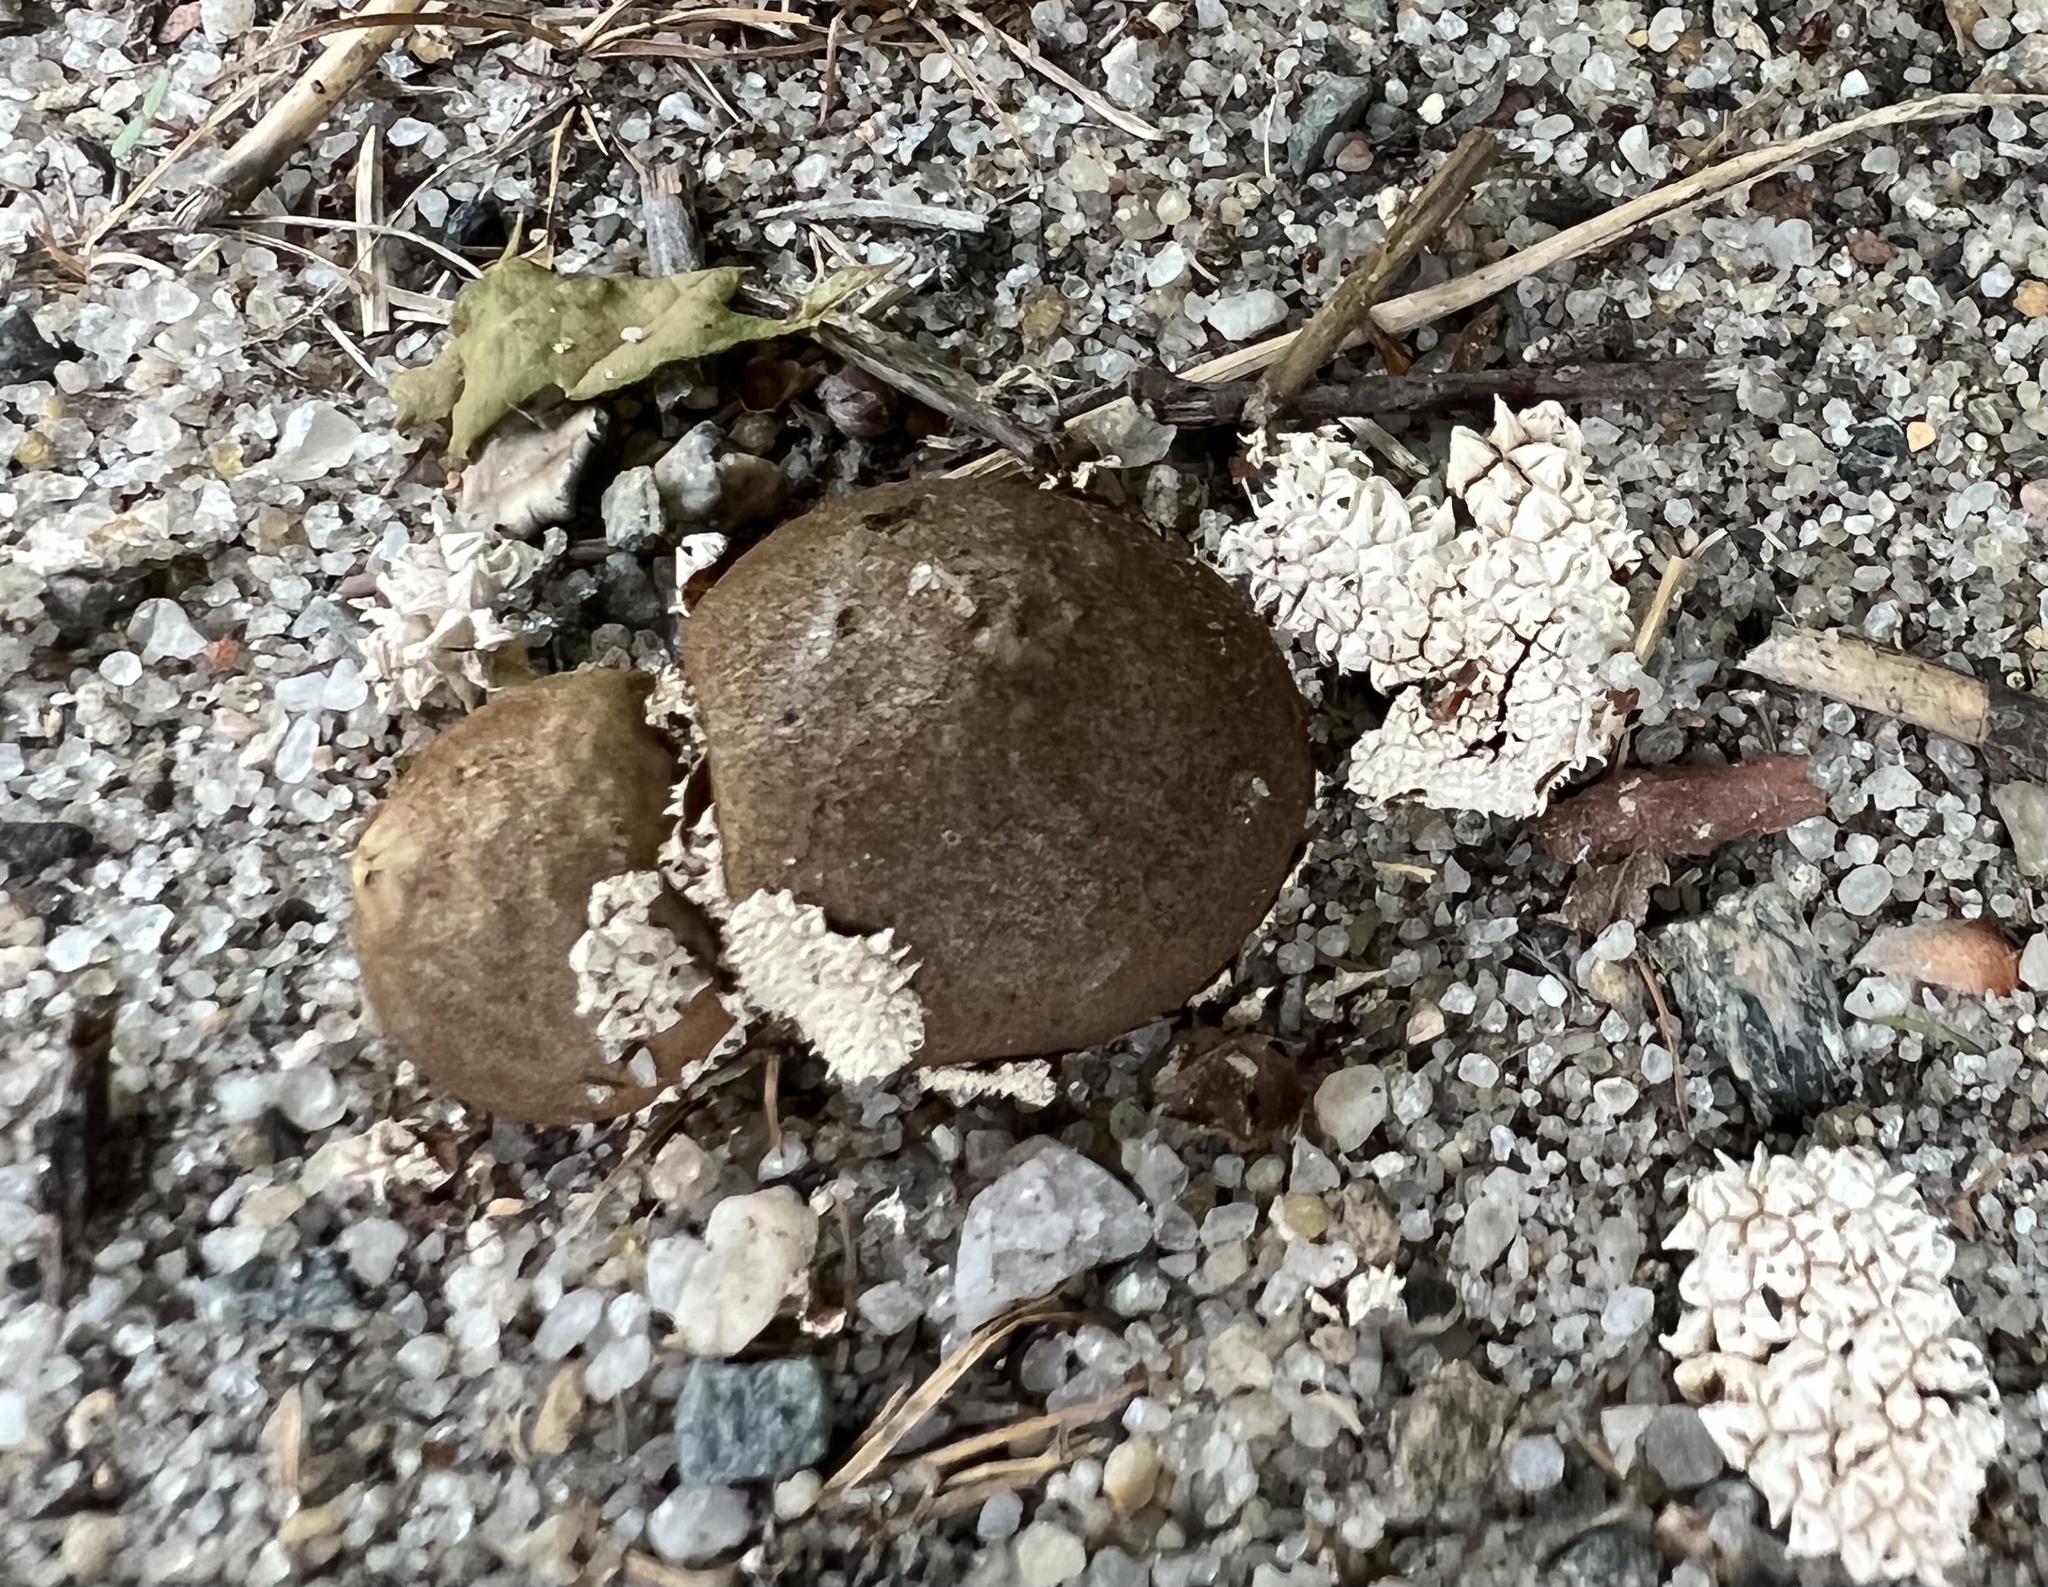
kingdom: Fungi
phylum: Basidiomycota
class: Agaricomycetes
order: Agaricales
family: Agaricaceae
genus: Lycoperdon
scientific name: Lycoperdon marginatum
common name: Peeling puffball
